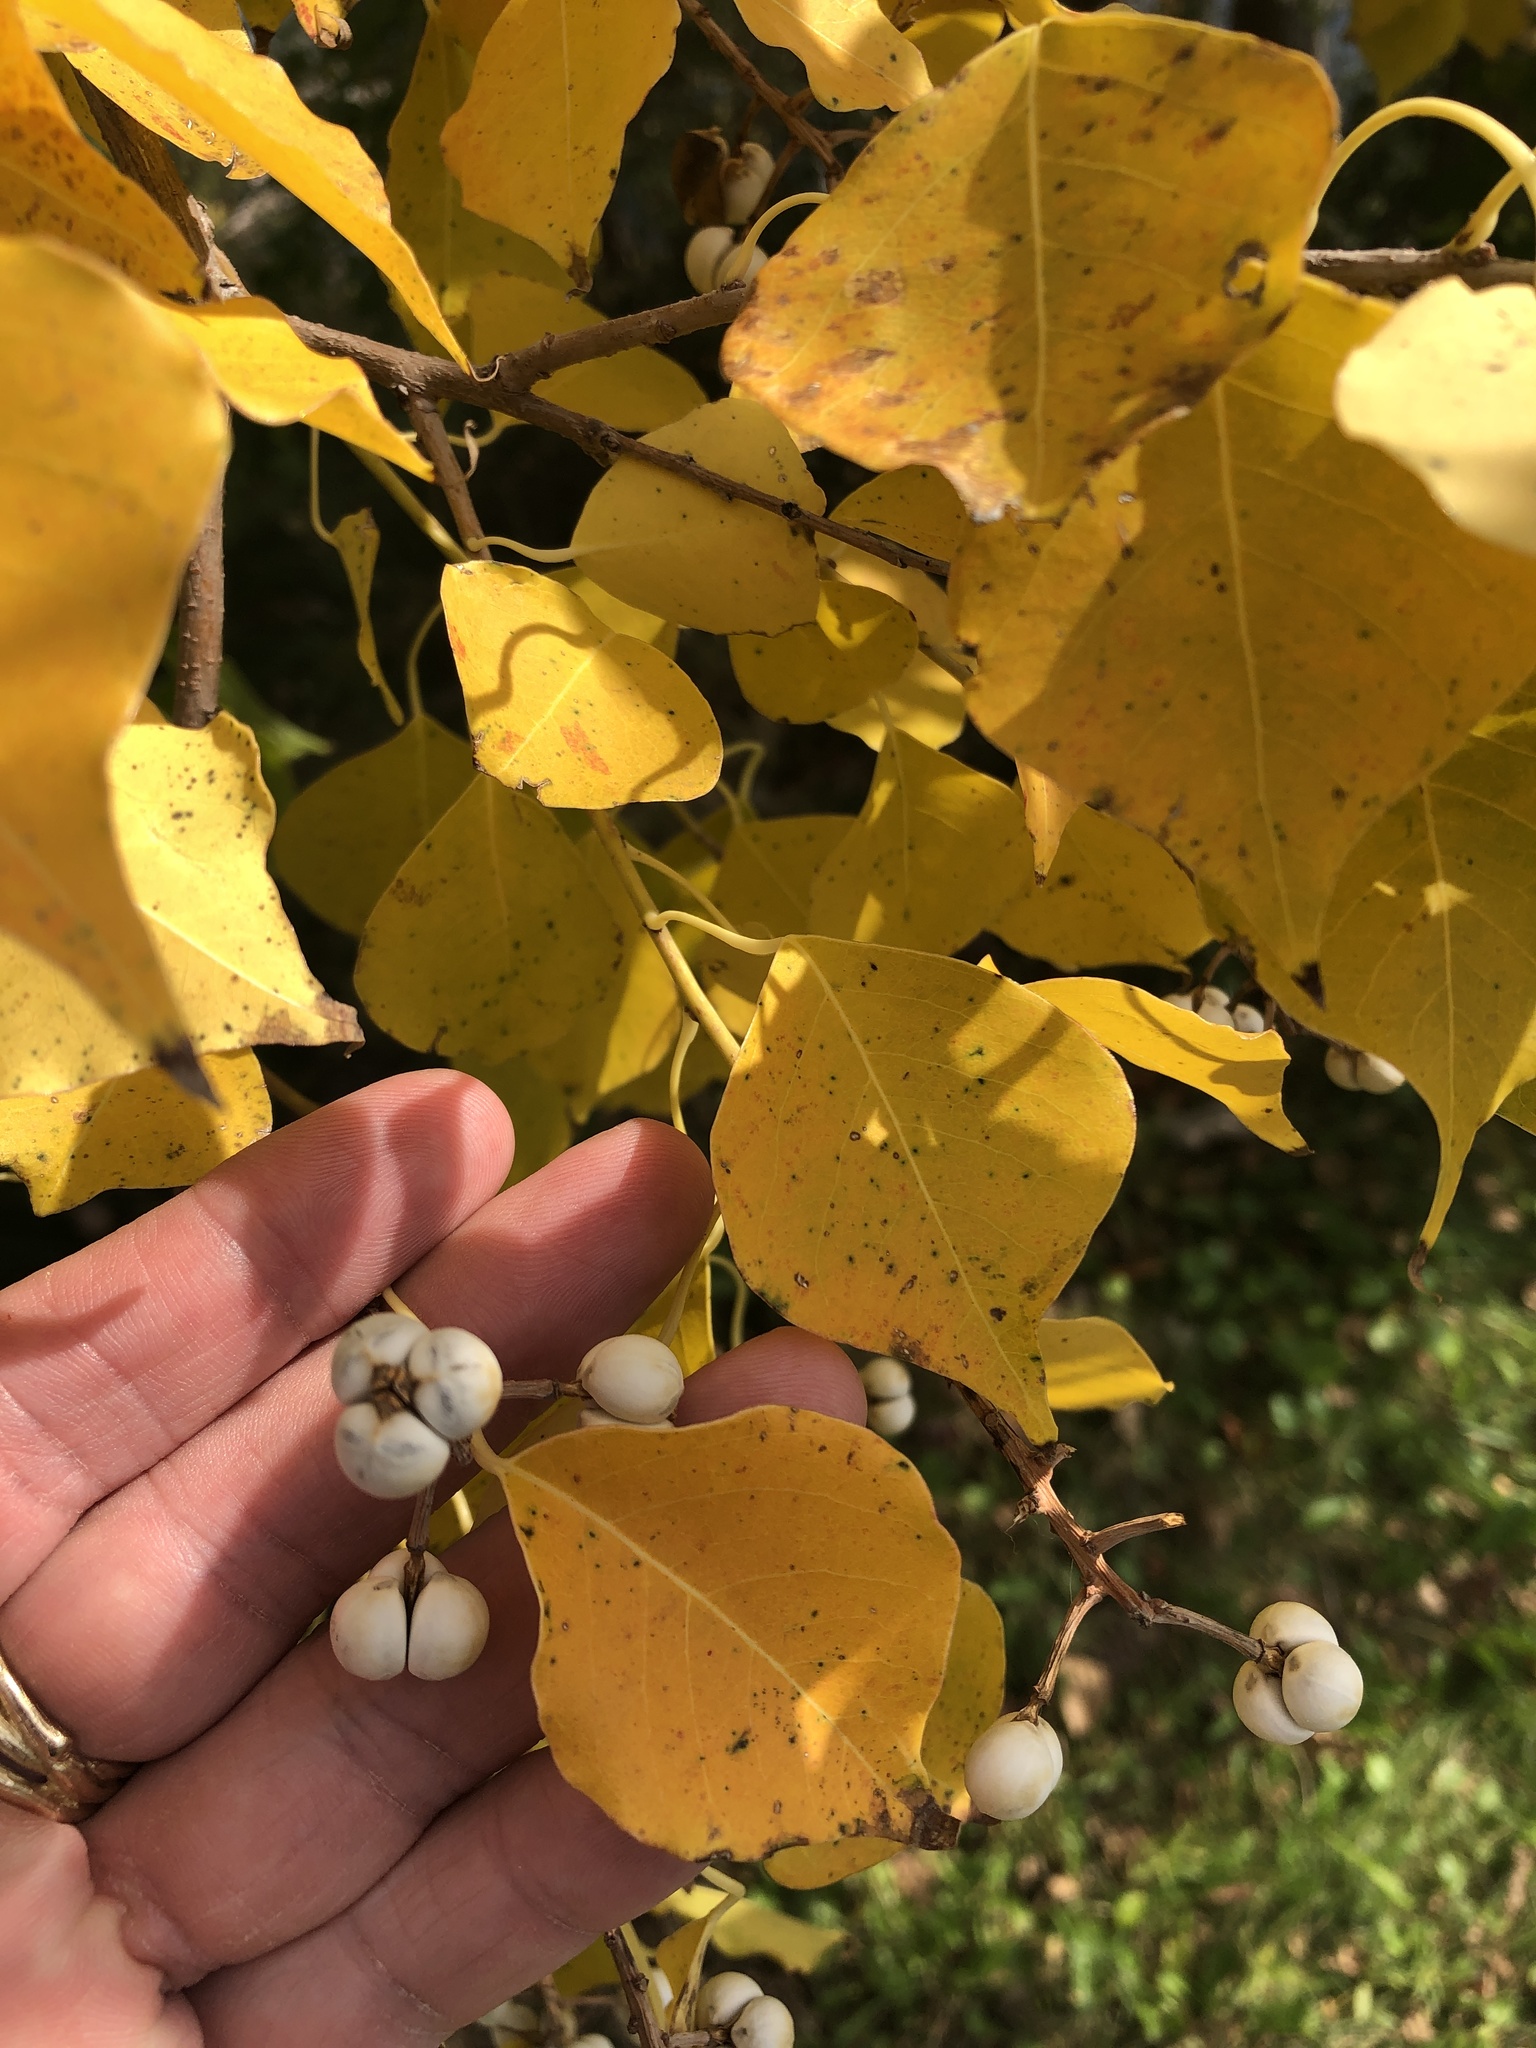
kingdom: Plantae
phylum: Tracheophyta
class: Magnoliopsida
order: Malpighiales
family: Euphorbiaceae
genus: Triadica
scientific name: Triadica sebifera
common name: Chinese tallow
